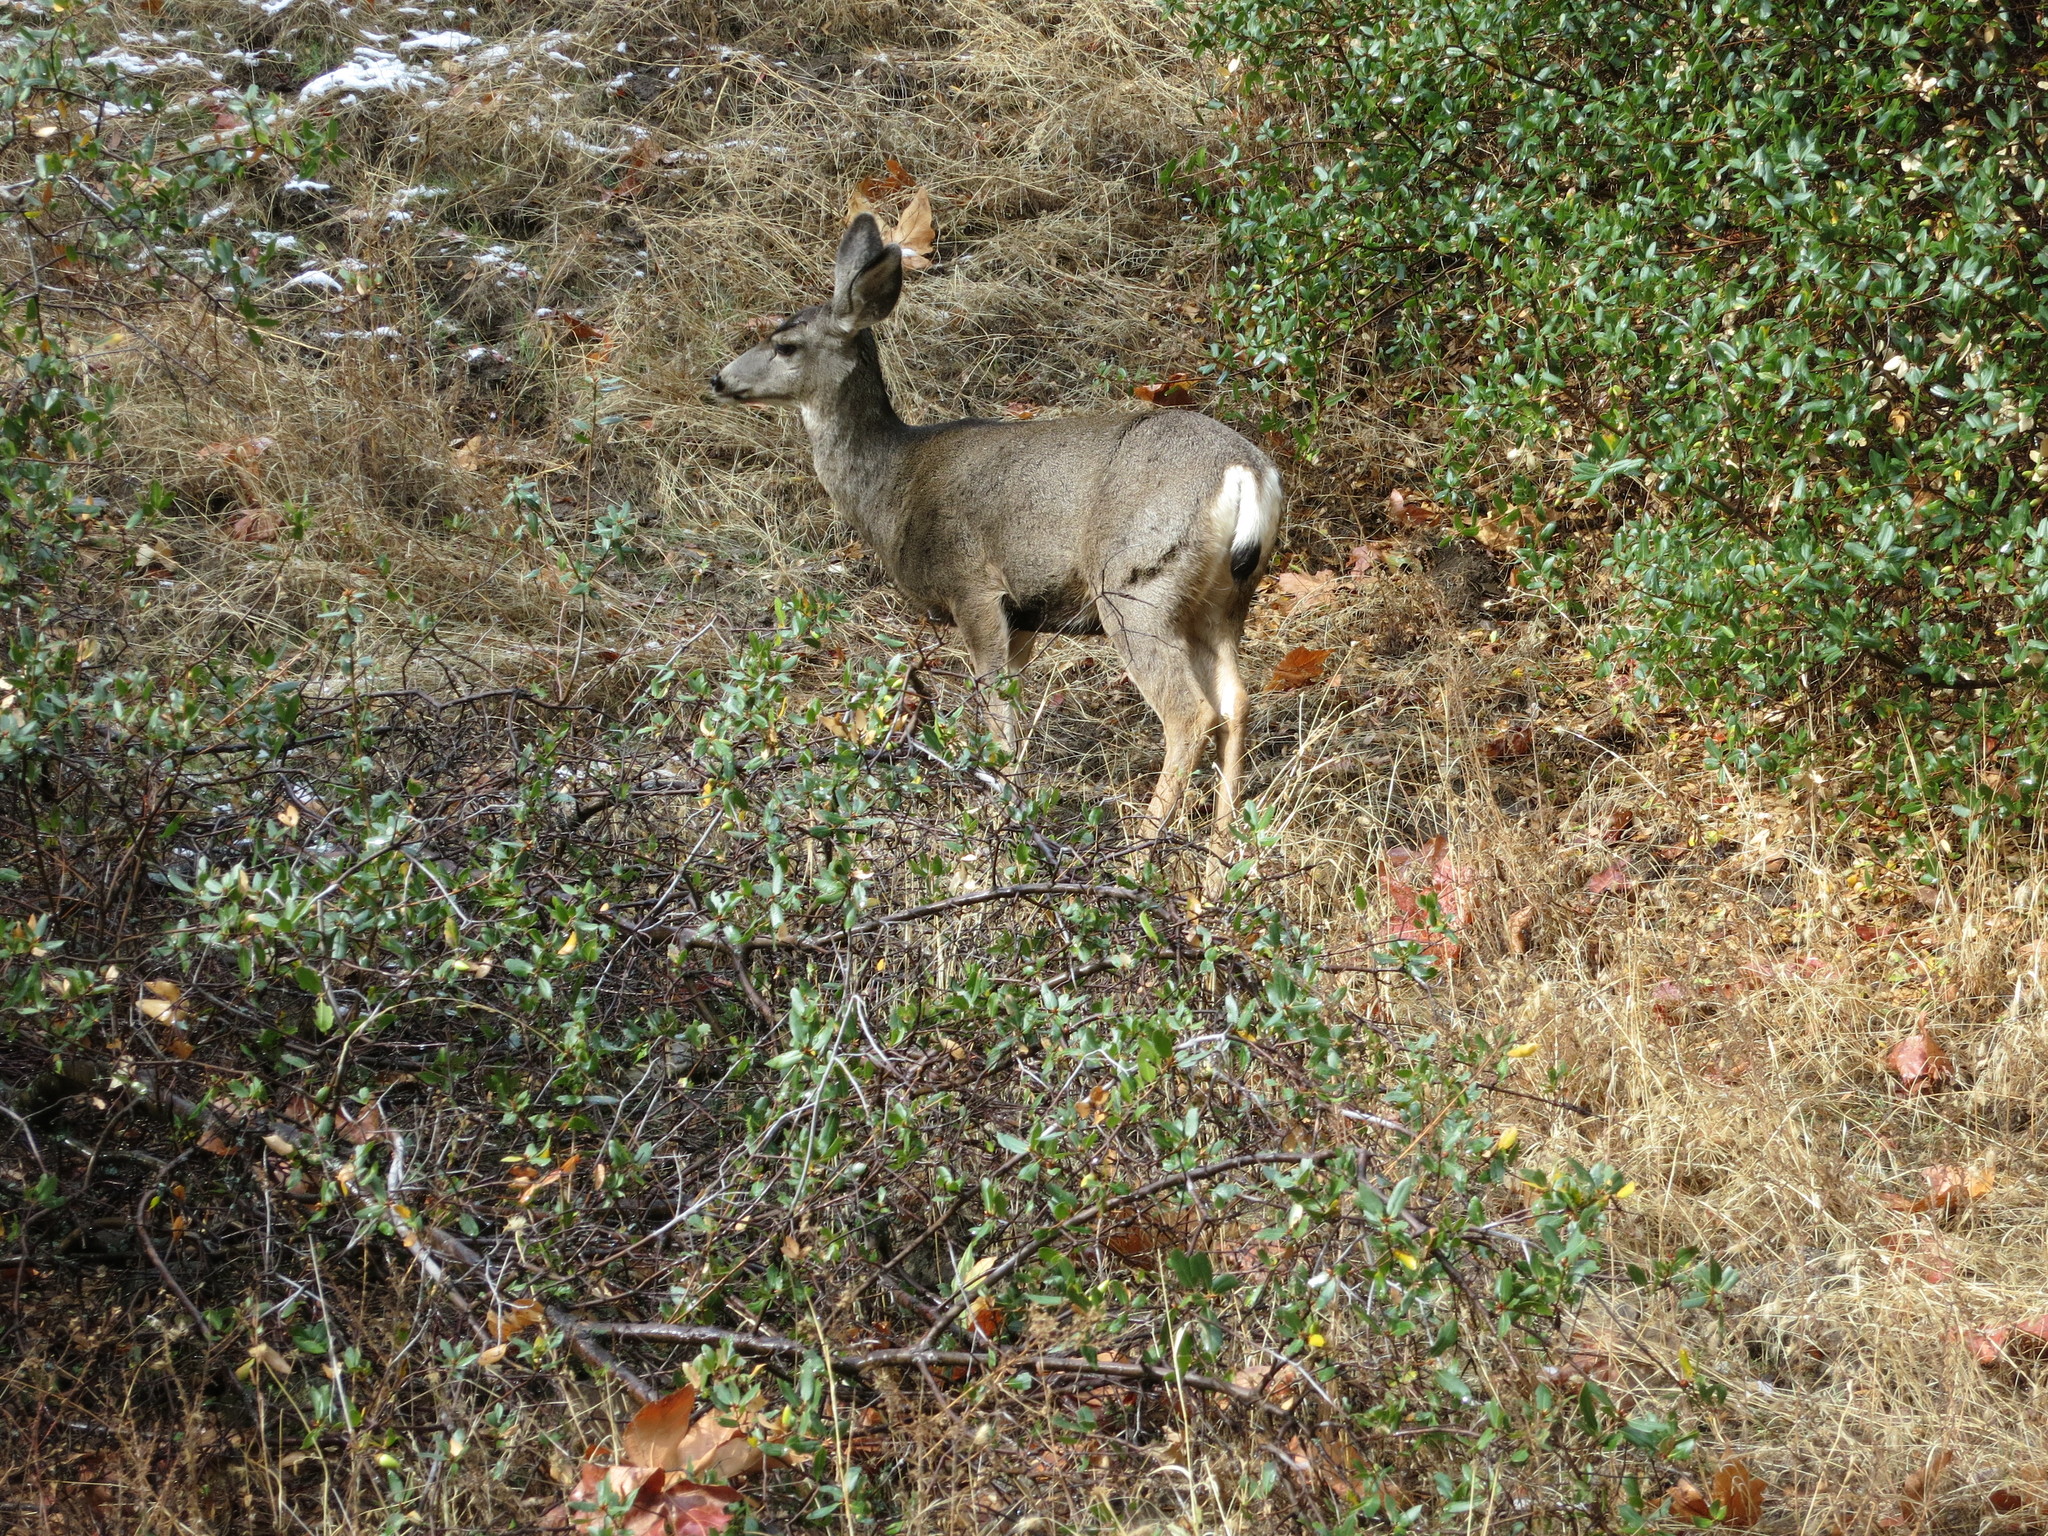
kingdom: Animalia
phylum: Chordata
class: Mammalia
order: Artiodactyla
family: Cervidae
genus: Odocoileus
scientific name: Odocoileus hemionus
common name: Mule deer
